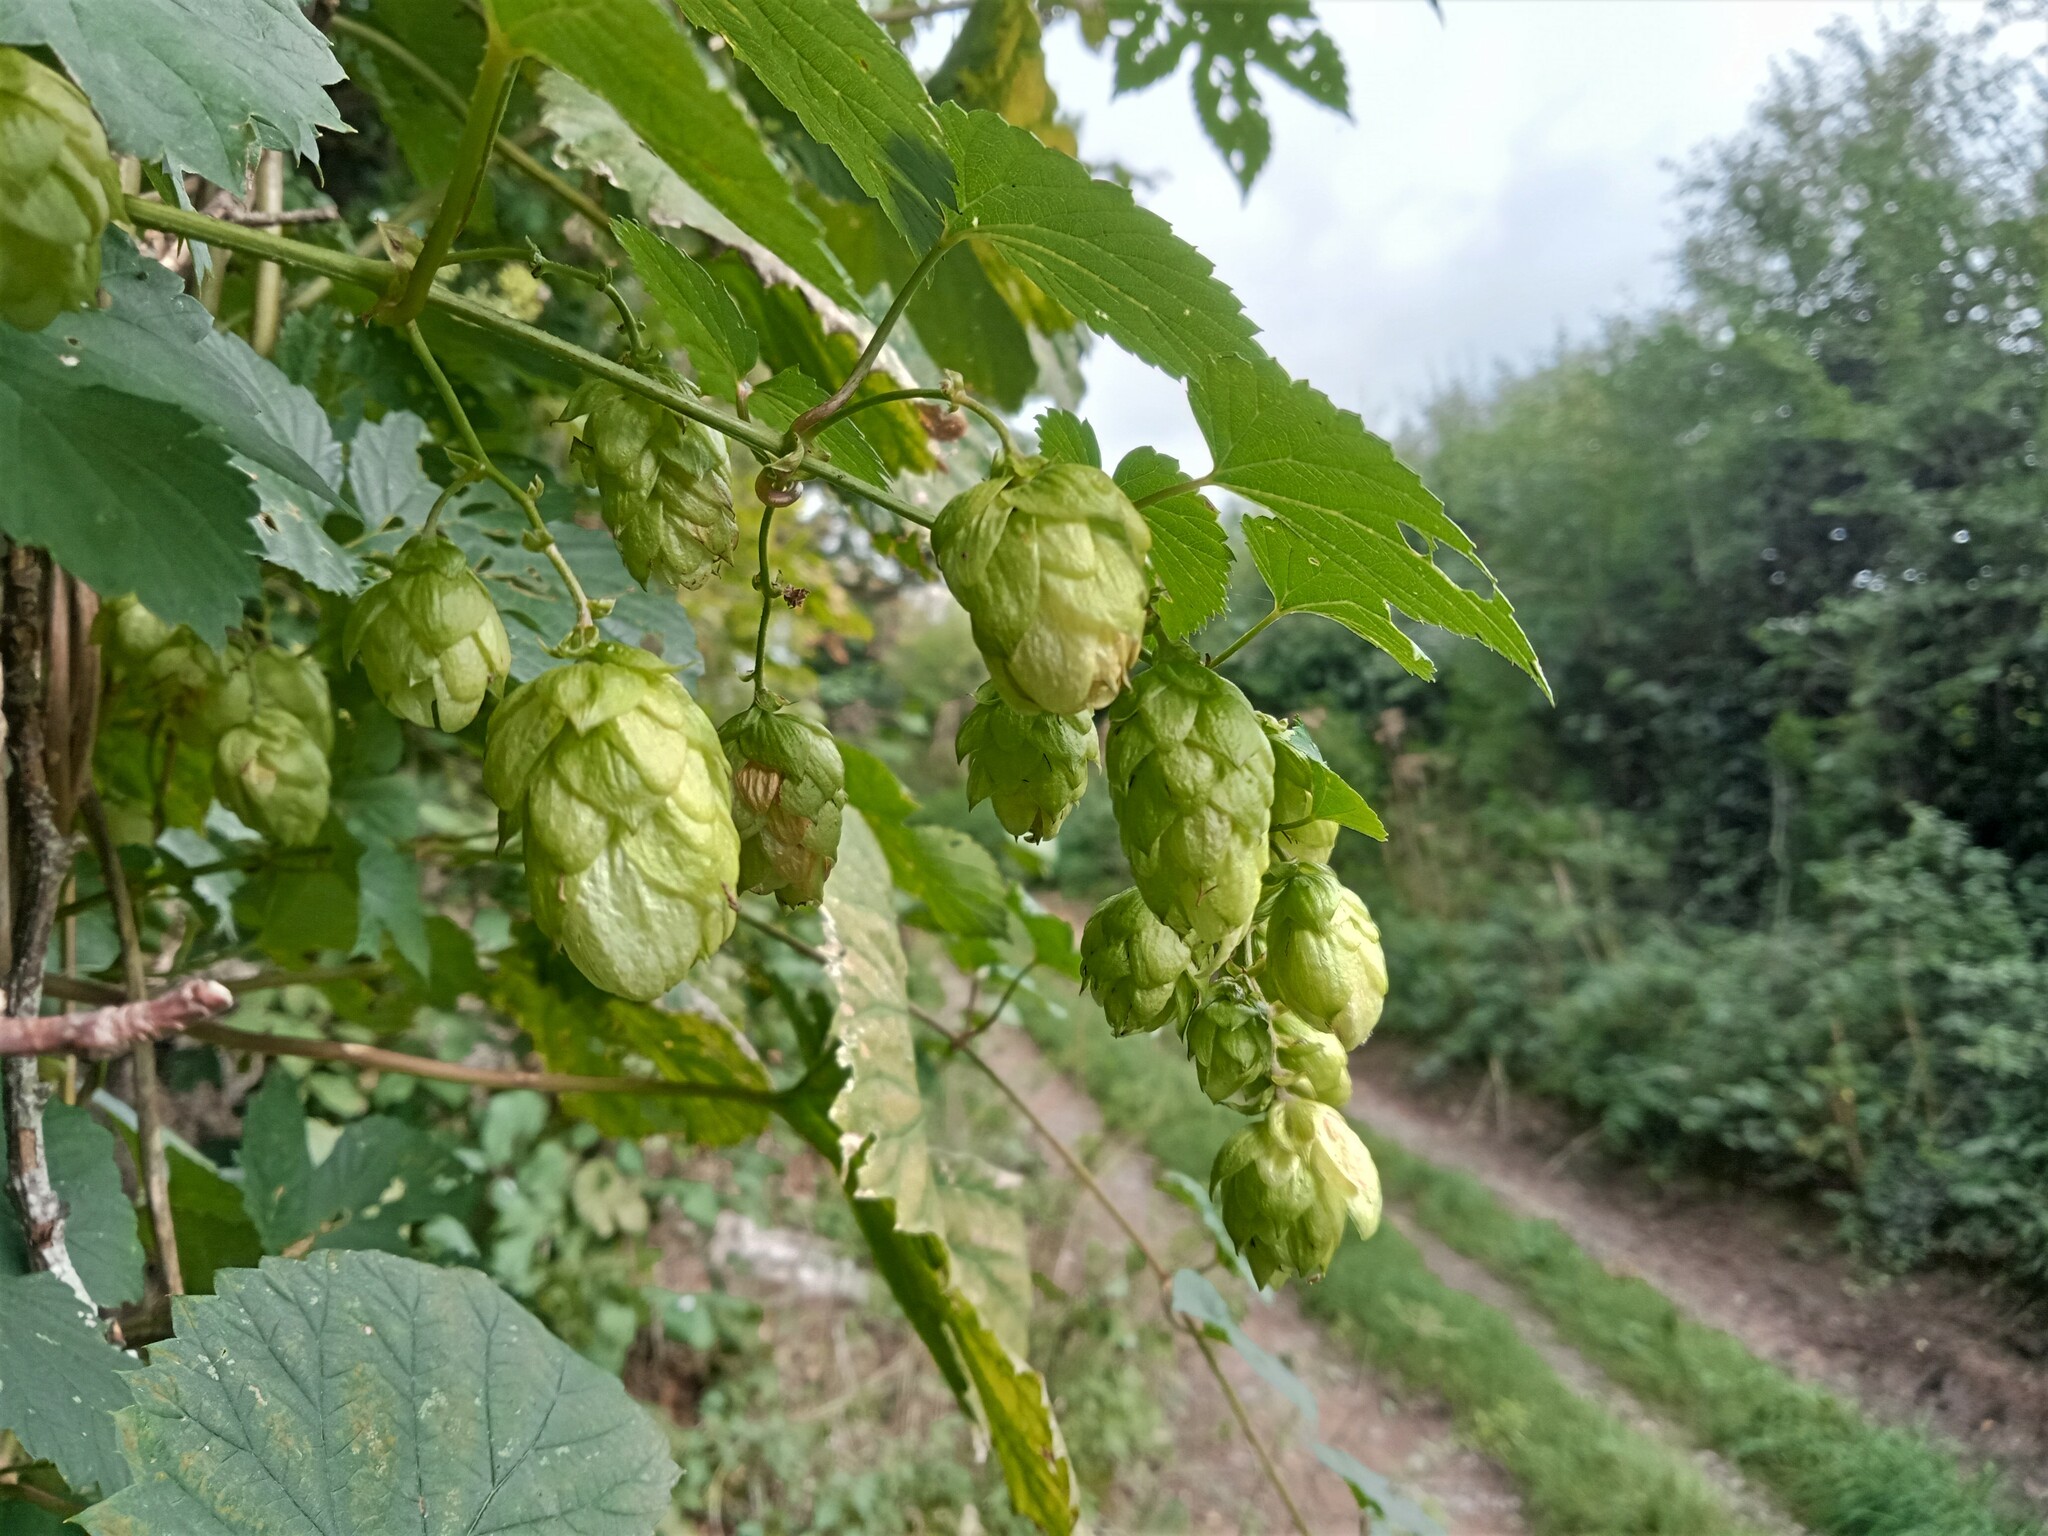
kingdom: Plantae
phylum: Tracheophyta
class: Magnoliopsida
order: Rosales
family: Cannabaceae
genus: Humulus
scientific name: Humulus lupulus
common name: Hop
